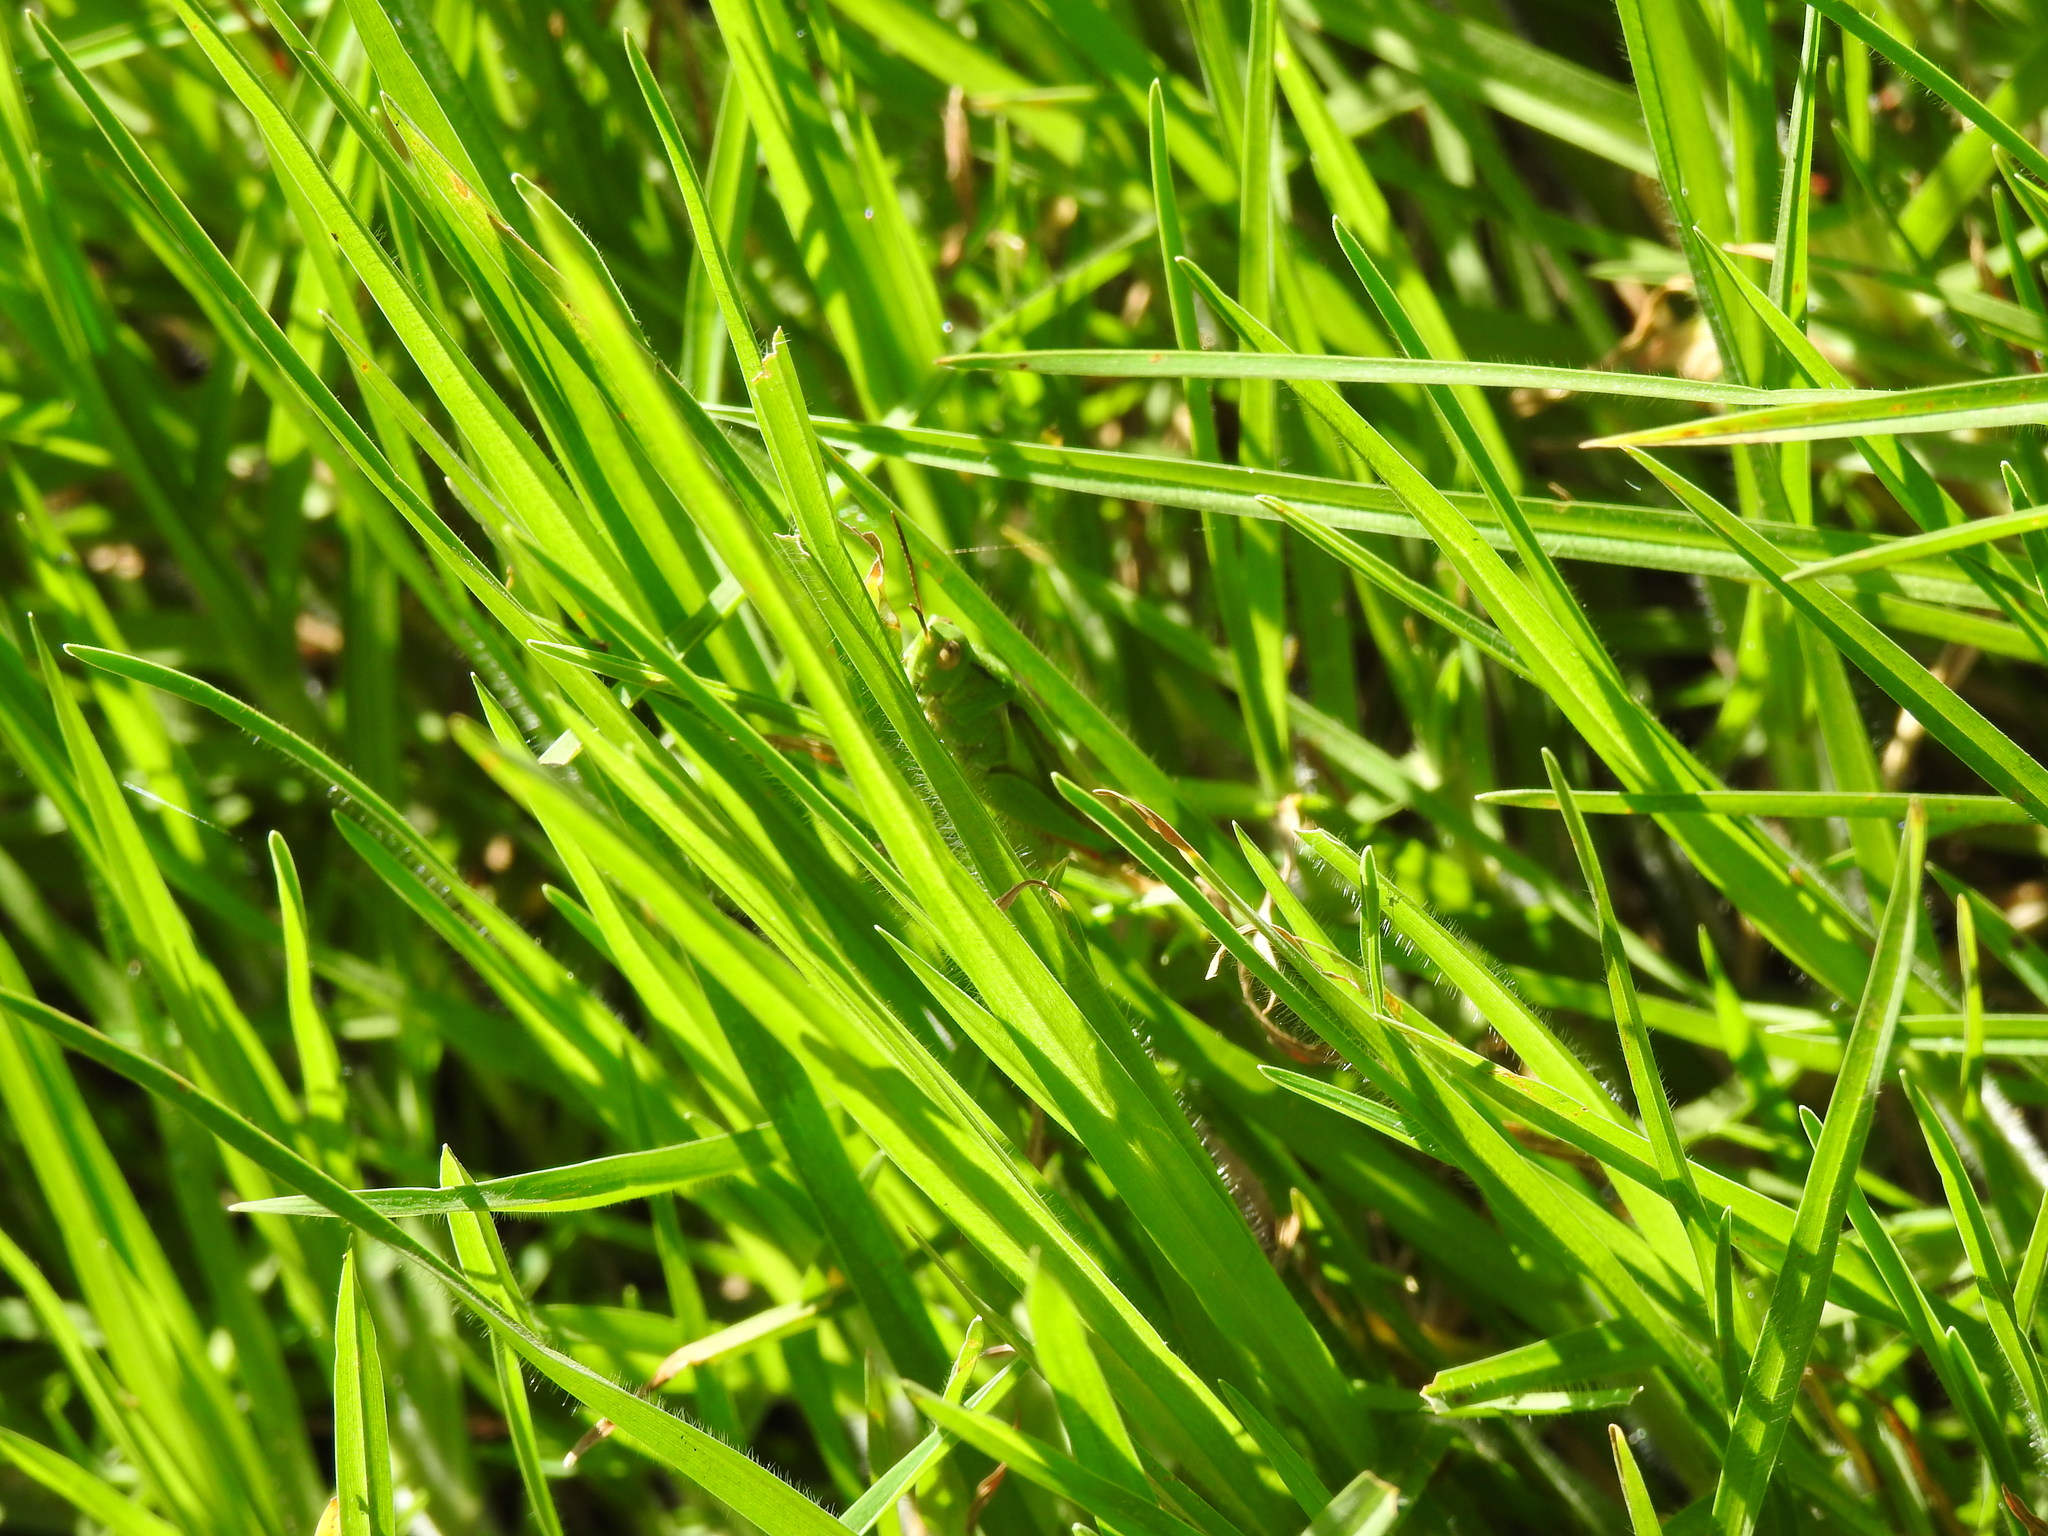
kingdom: Animalia
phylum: Arthropoda
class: Insecta
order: Orthoptera
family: Acrididae
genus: Paracinema
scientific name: Paracinema tricolor
